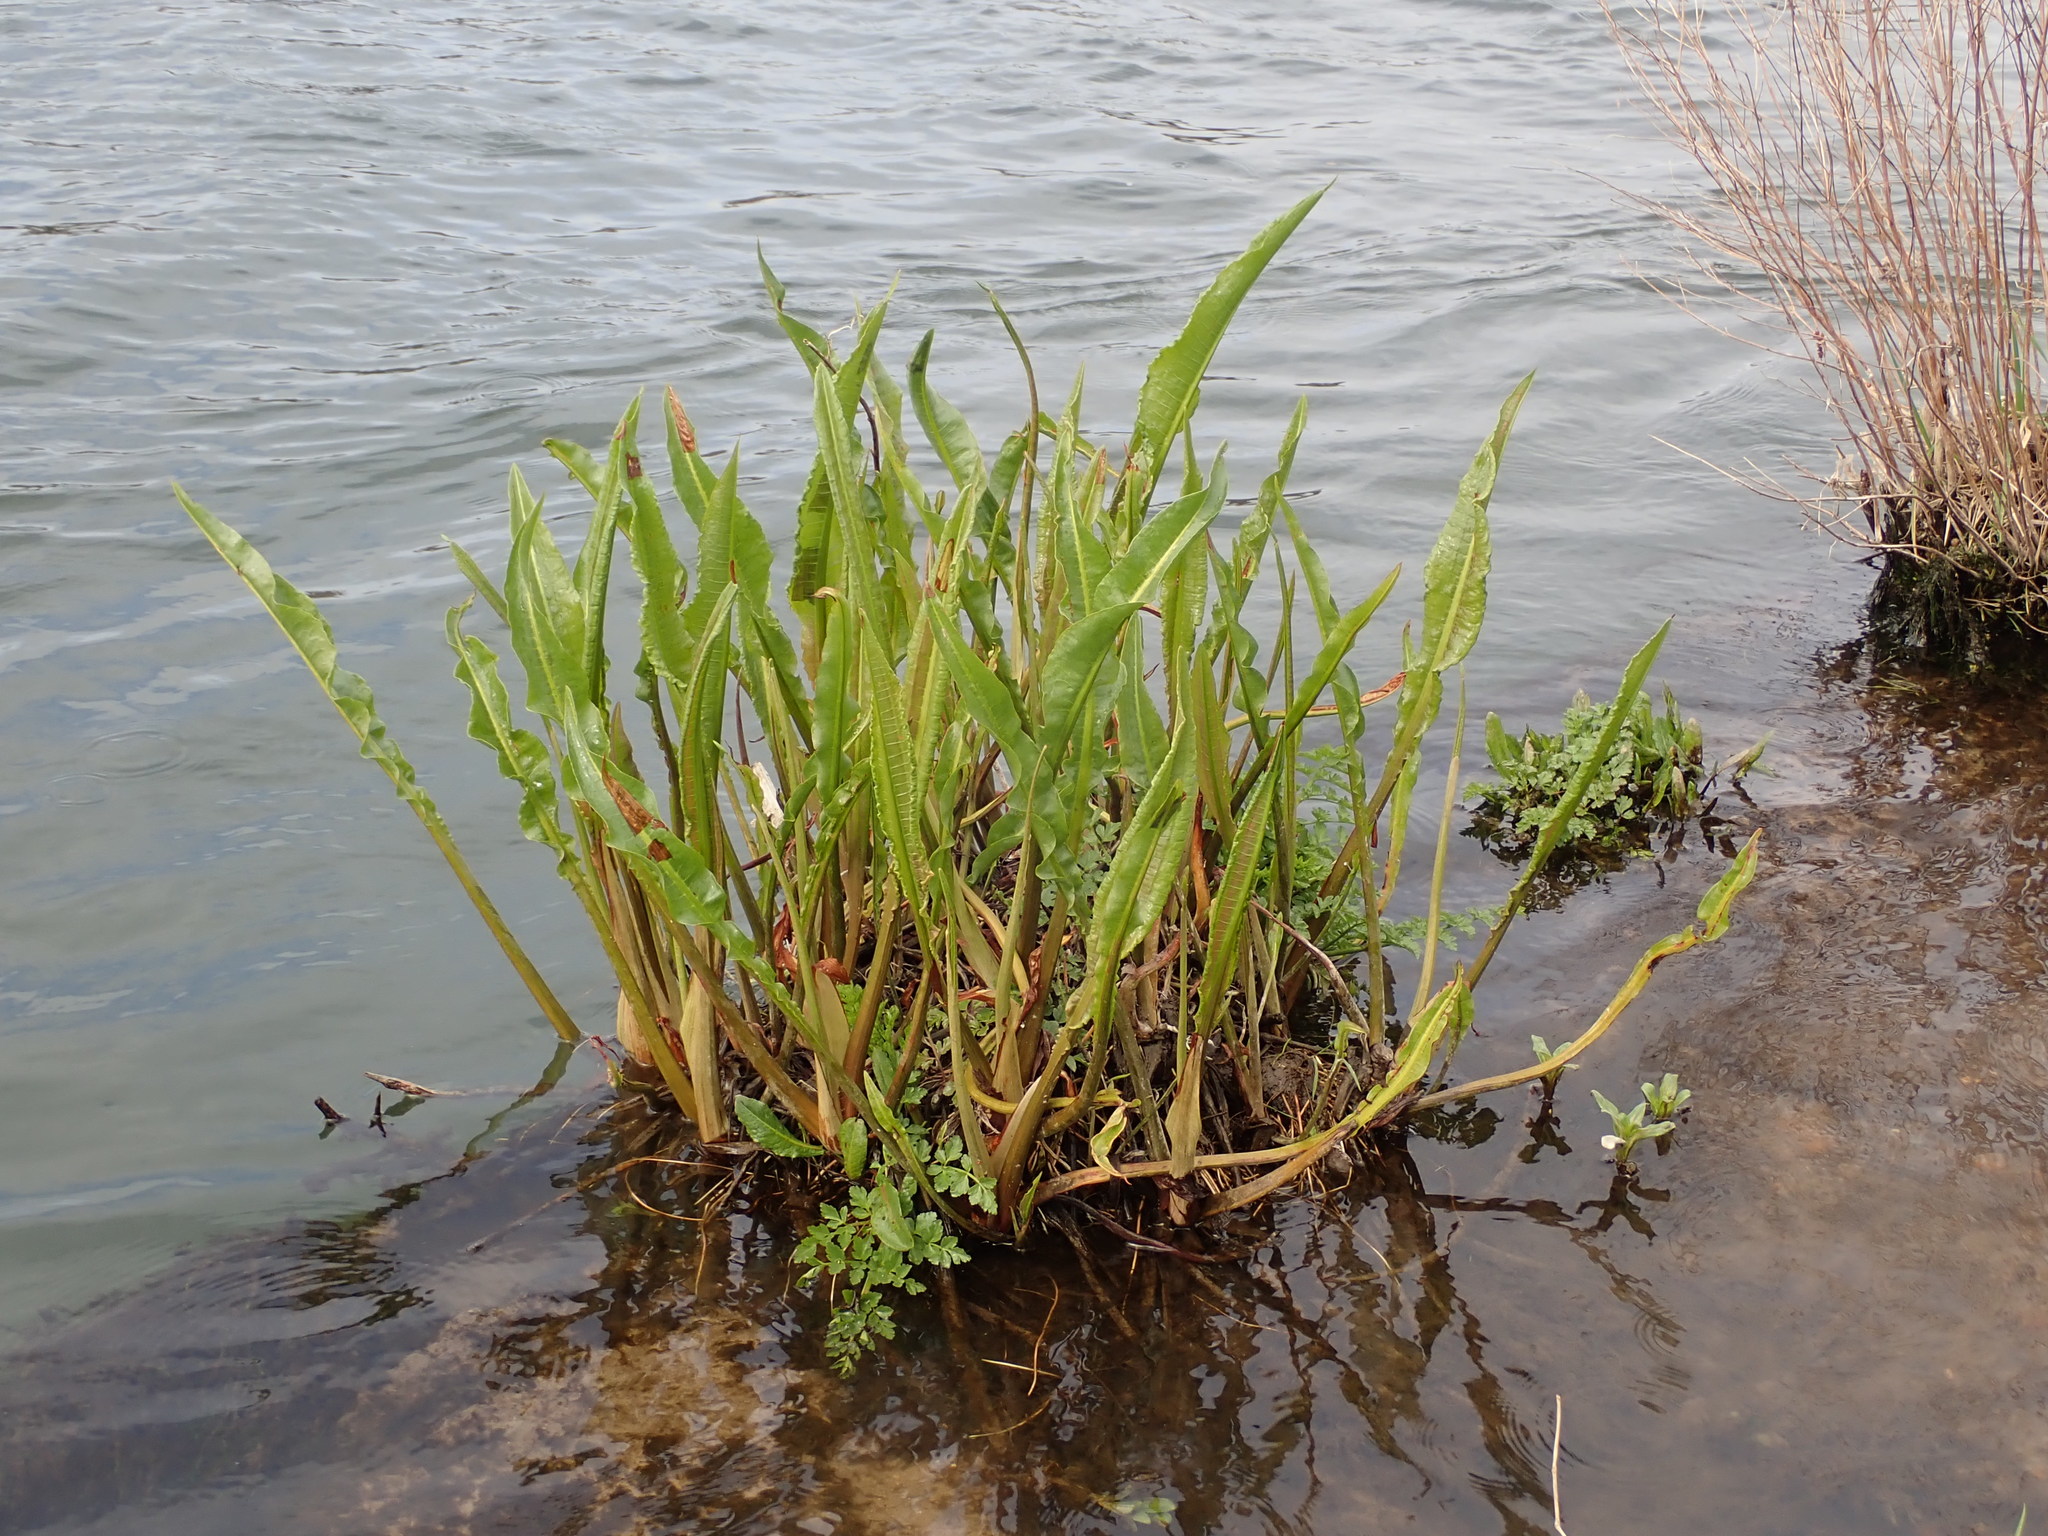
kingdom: Plantae
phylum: Tracheophyta
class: Magnoliopsida
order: Caryophyllales
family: Polygonaceae
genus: Rumex
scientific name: Rumex hydrolapathum
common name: Water dock
